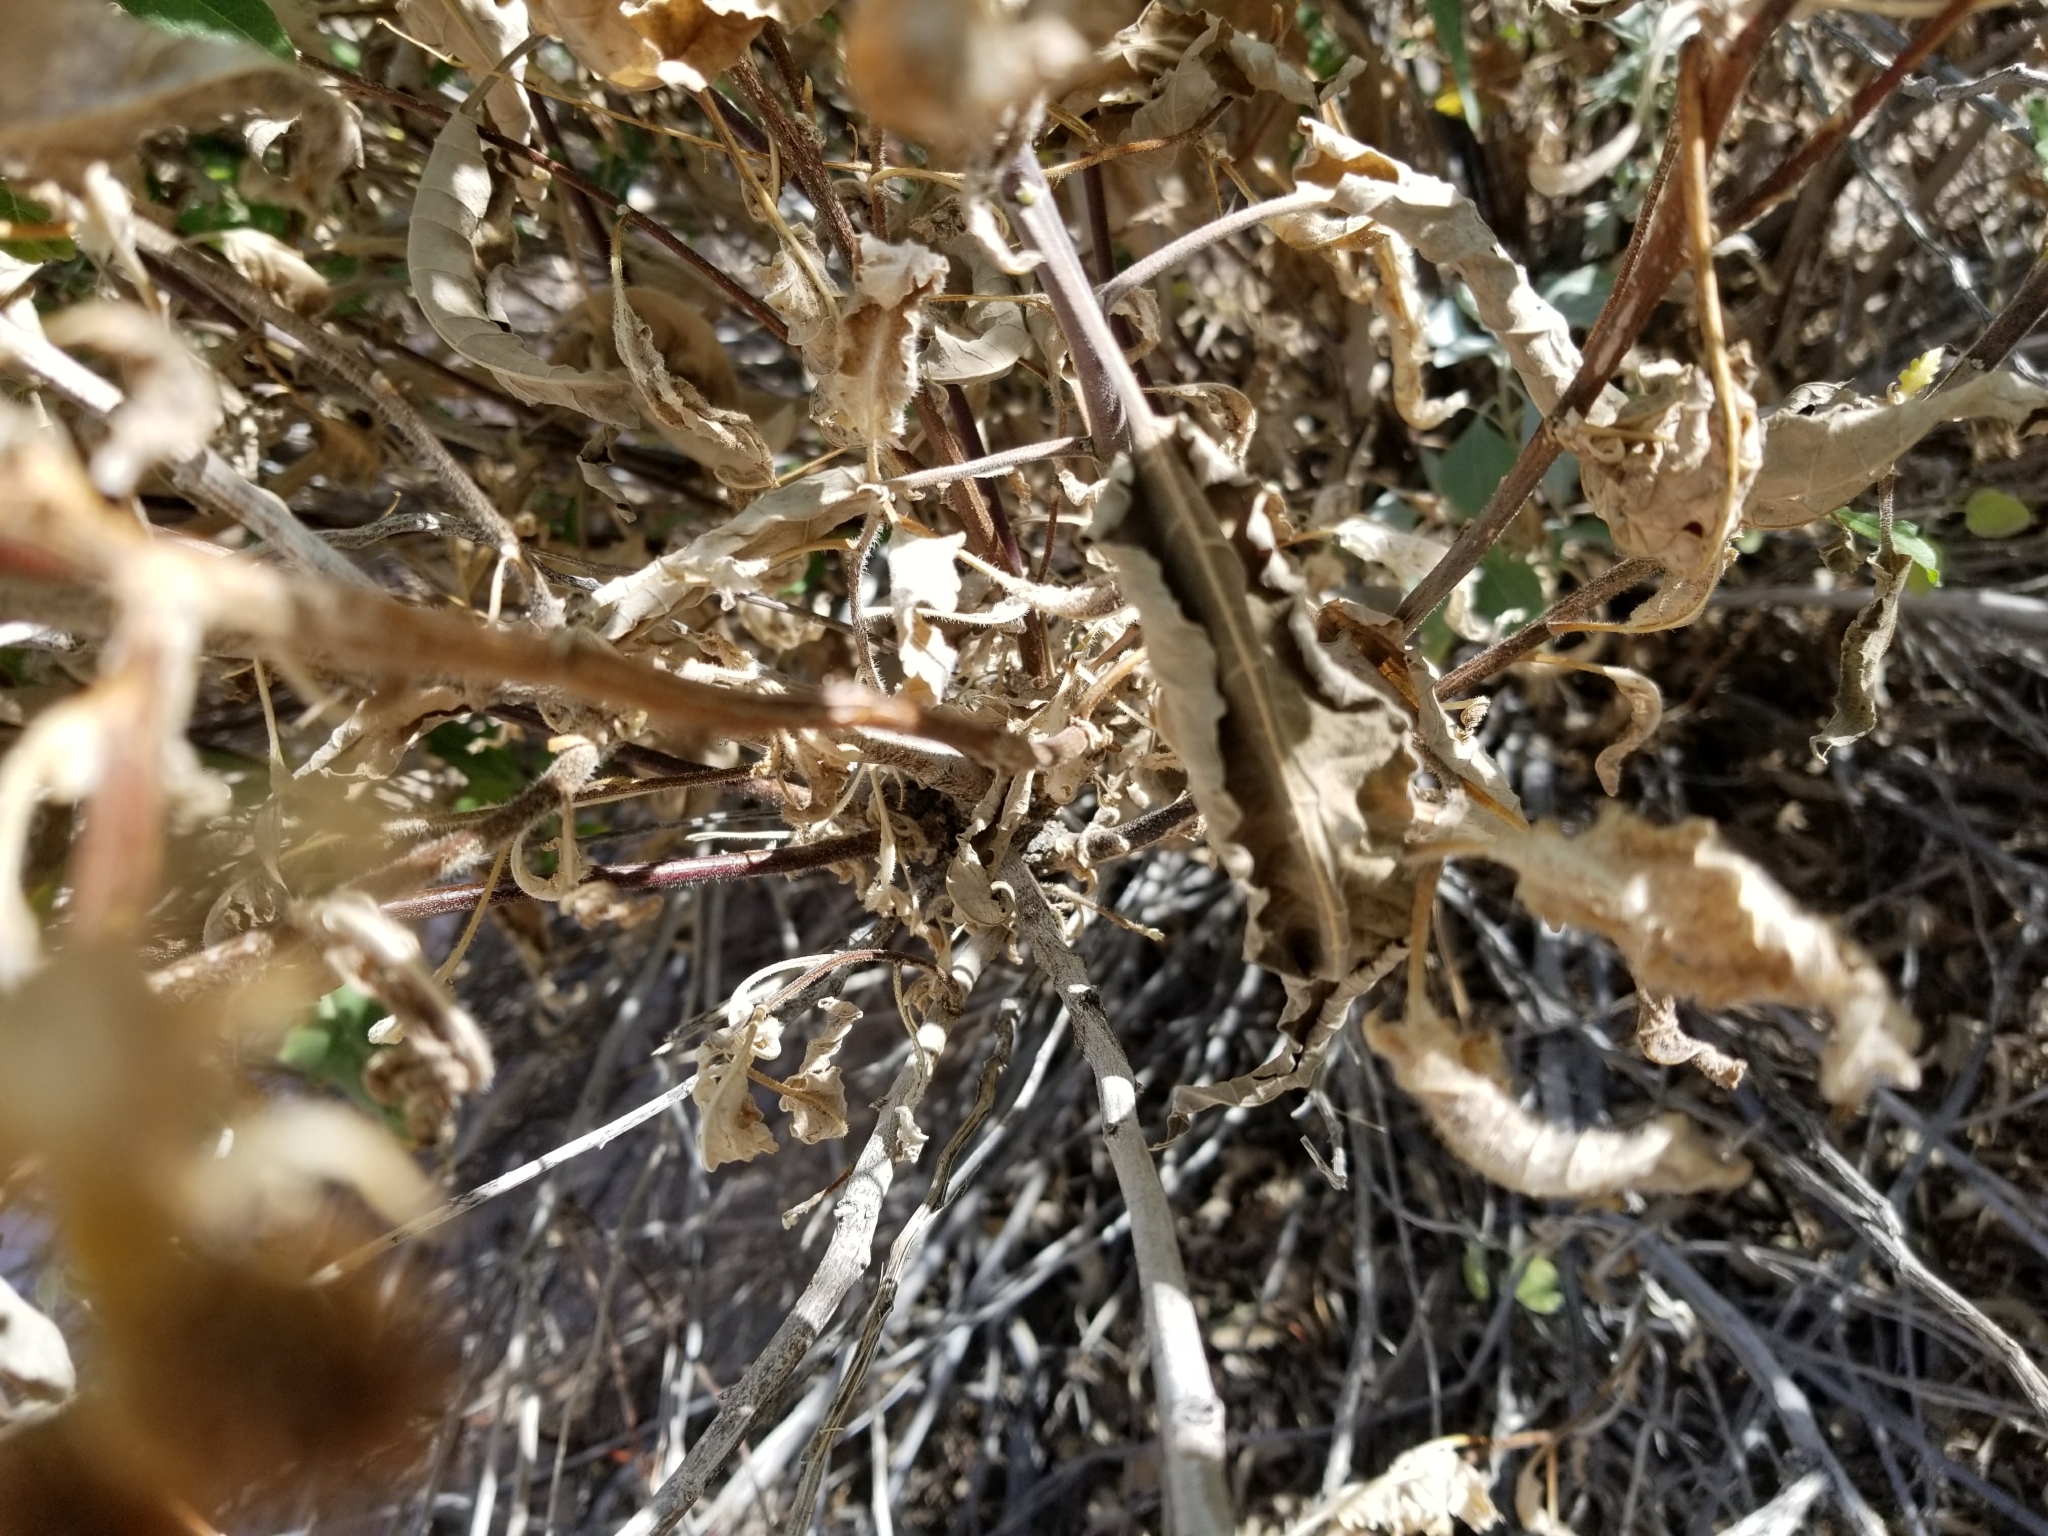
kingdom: Plantae
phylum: Tracheophyta
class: Magnoliopsida
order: Asterales
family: Asteraceae
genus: Ambrosia
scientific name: Ambrosia ambrosioides
